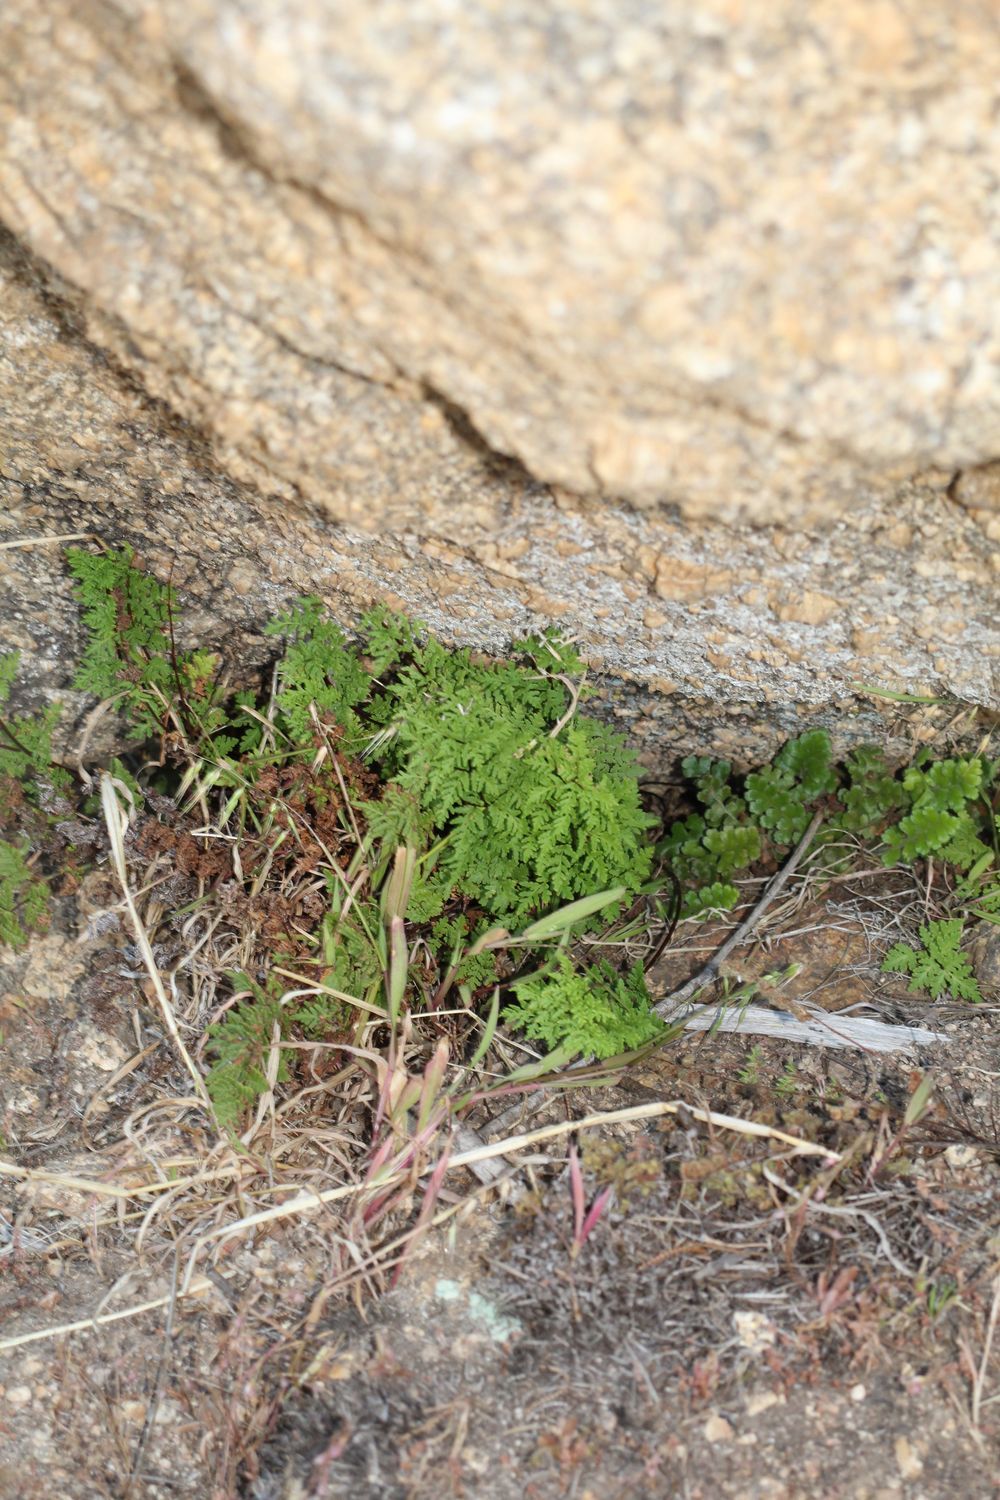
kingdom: Plantae
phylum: Tracheophyta
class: Polypodiopsida
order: Polypodiales
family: Pteridaceae
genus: Cheilanthes
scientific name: Cheilanthes austrotenuifolia
